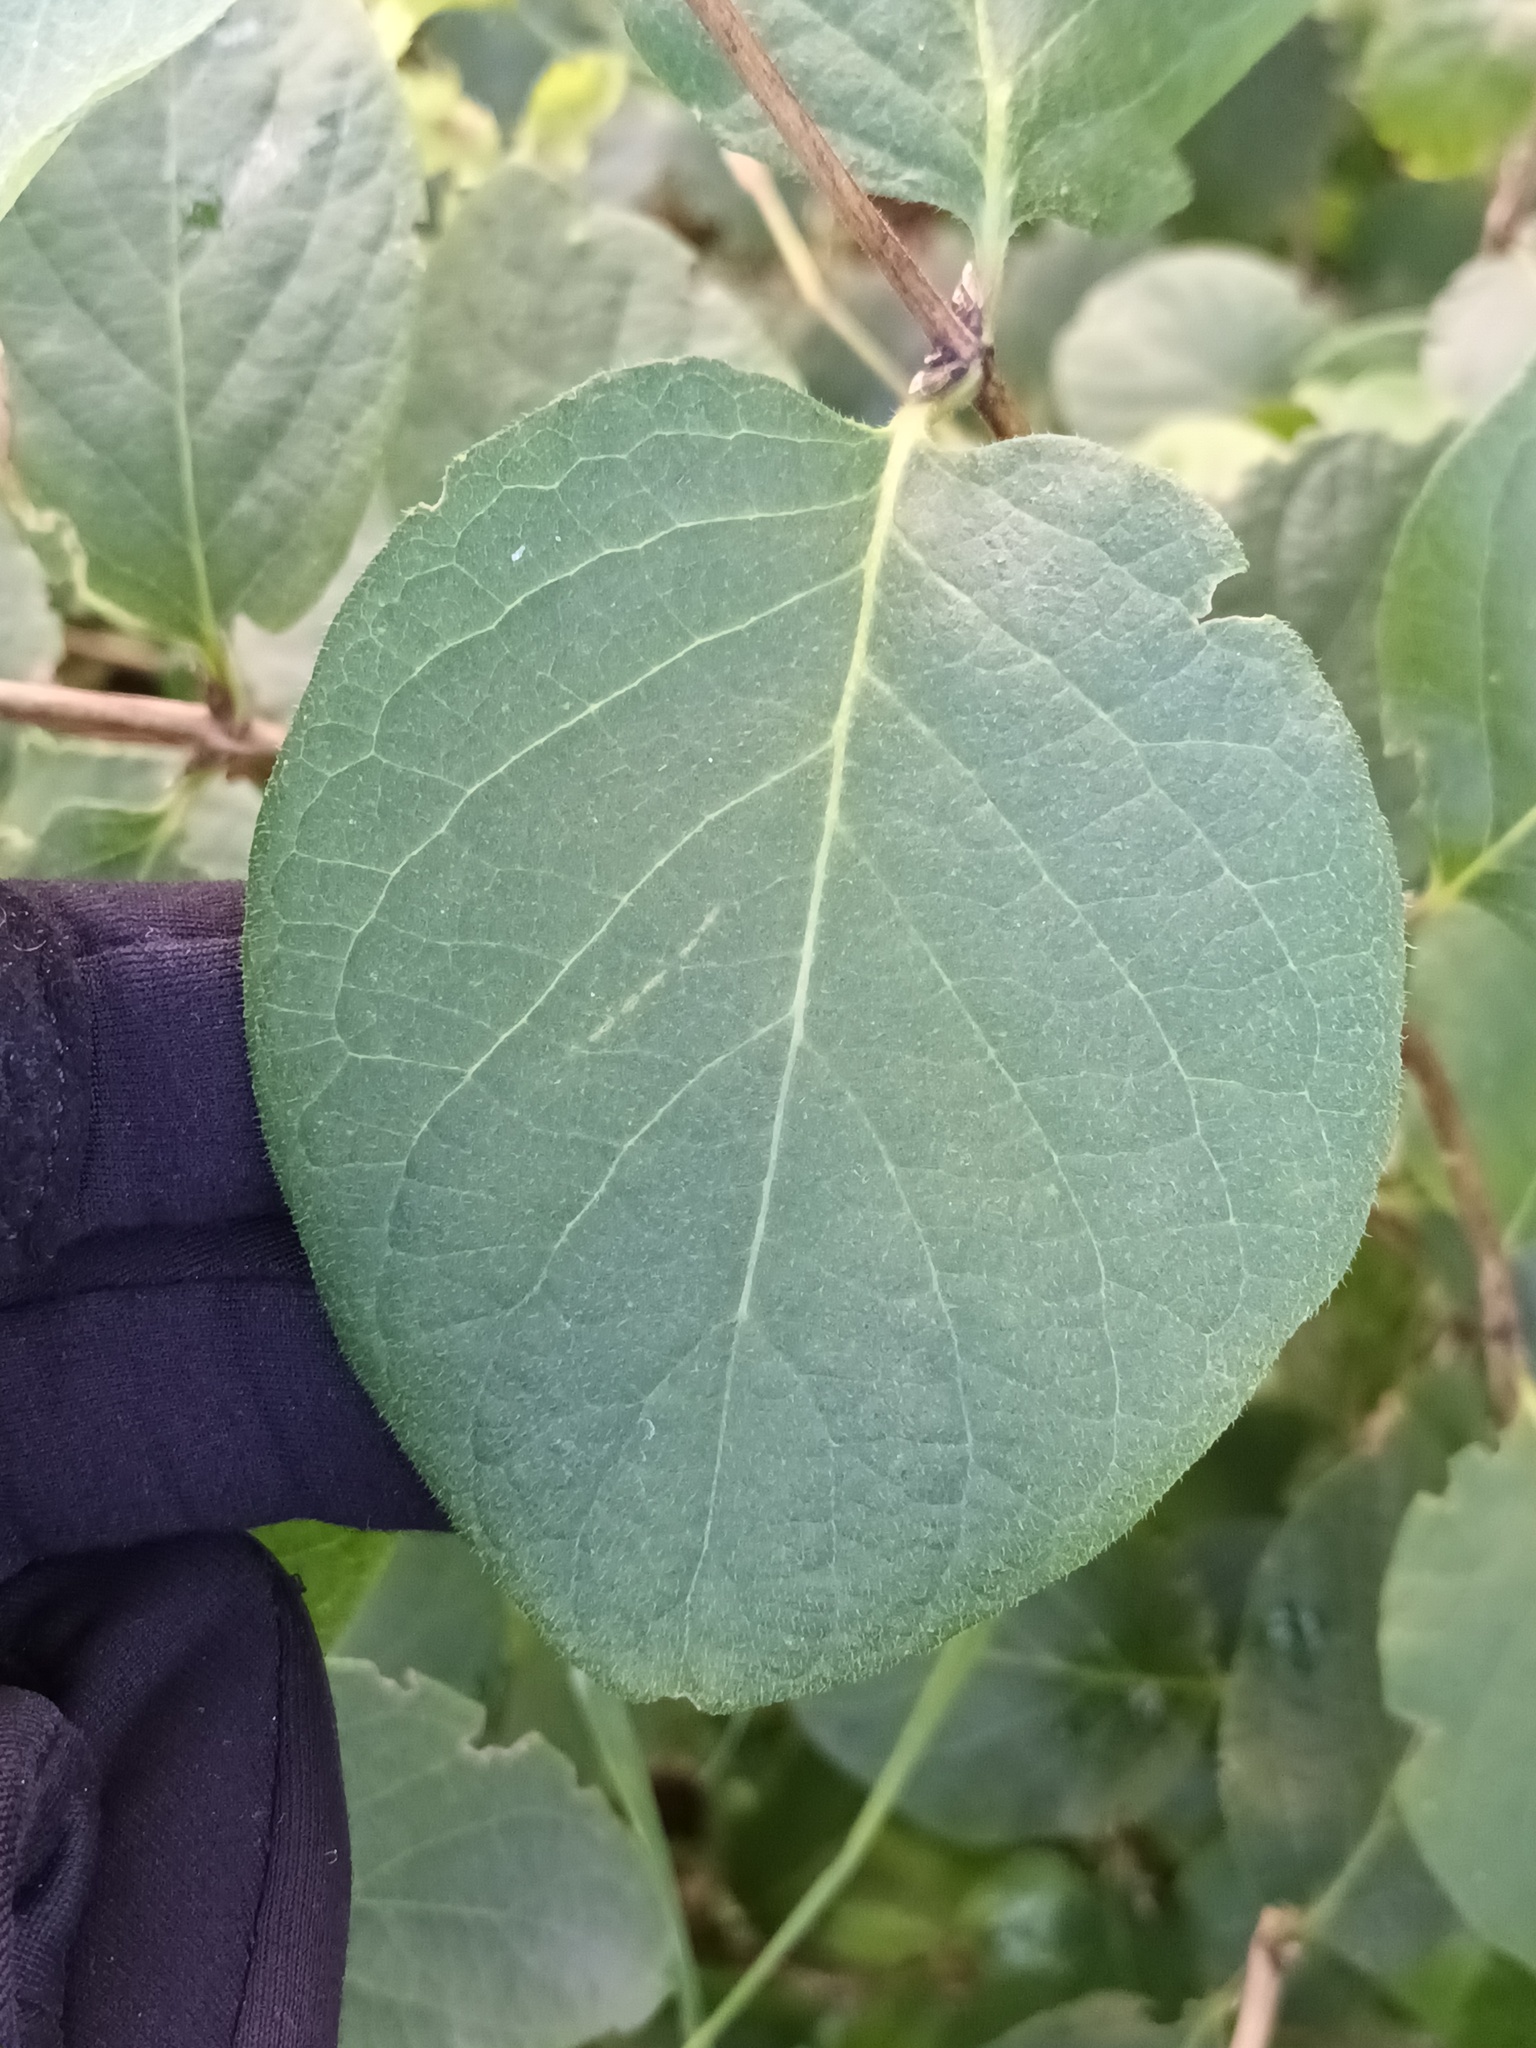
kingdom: Plantae
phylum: Tracheophyta
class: Magnoliopsida
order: Dipsacales
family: Caprifoliaceae
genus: Lonicera
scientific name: Lonicera xylosteum
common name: Fly honeysuckle
